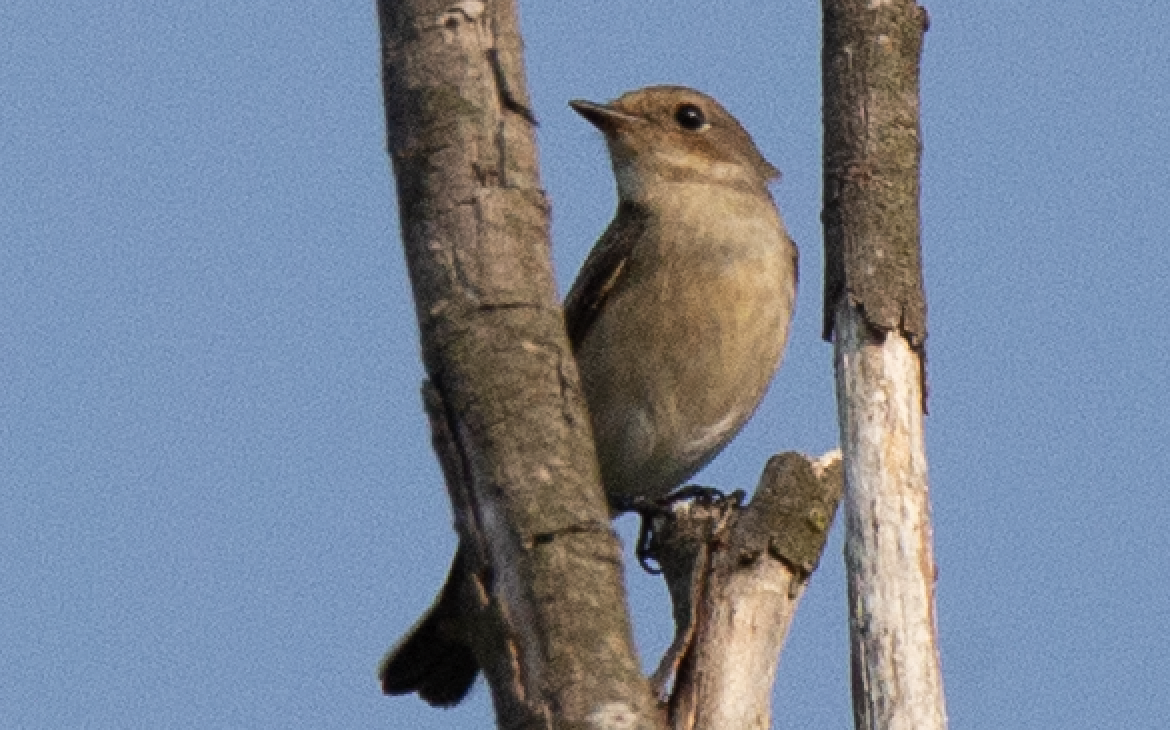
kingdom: Animalia
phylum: Chordata
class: Aves
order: Passeriformes
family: Muscicapidae
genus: Ficedula
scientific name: Ficedula hypoleuca
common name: European pied flycatcher
